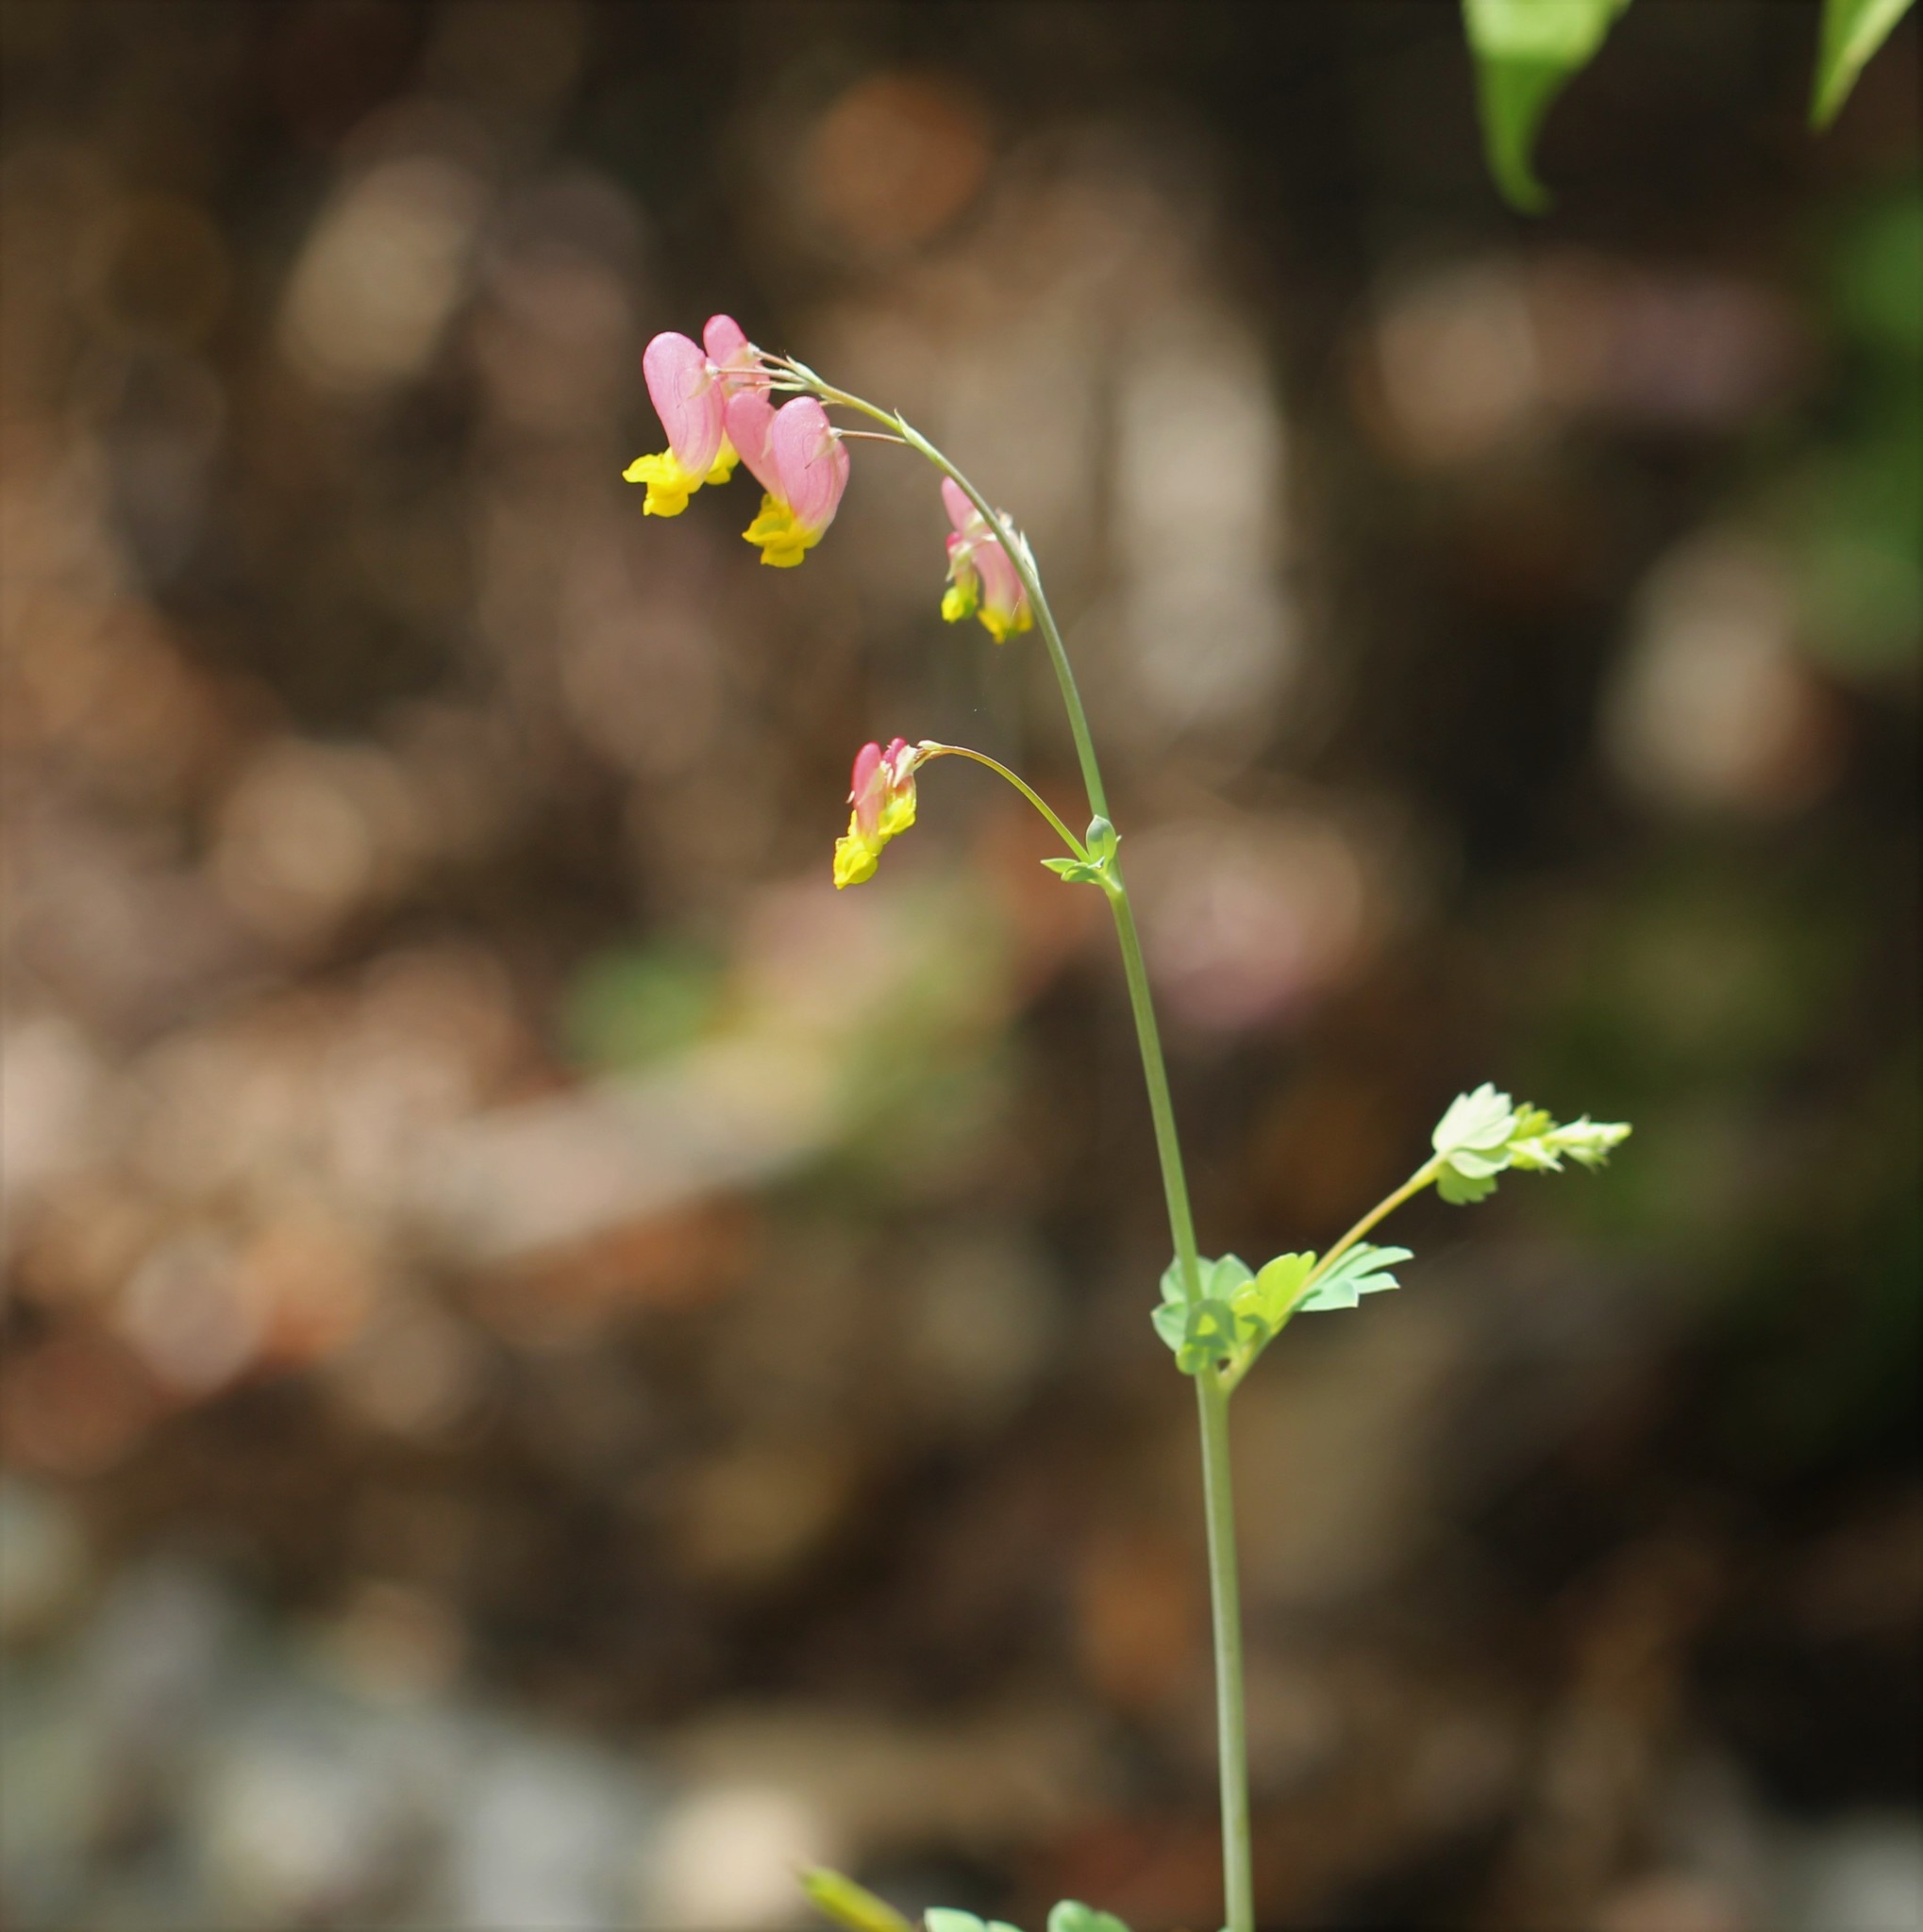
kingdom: Plantae
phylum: Tracheophyta
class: Magnoliopsida
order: Ranunculales
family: Papaveraceae
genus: Capnoides
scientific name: Capnoides sempervirens
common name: Rock harlequin
